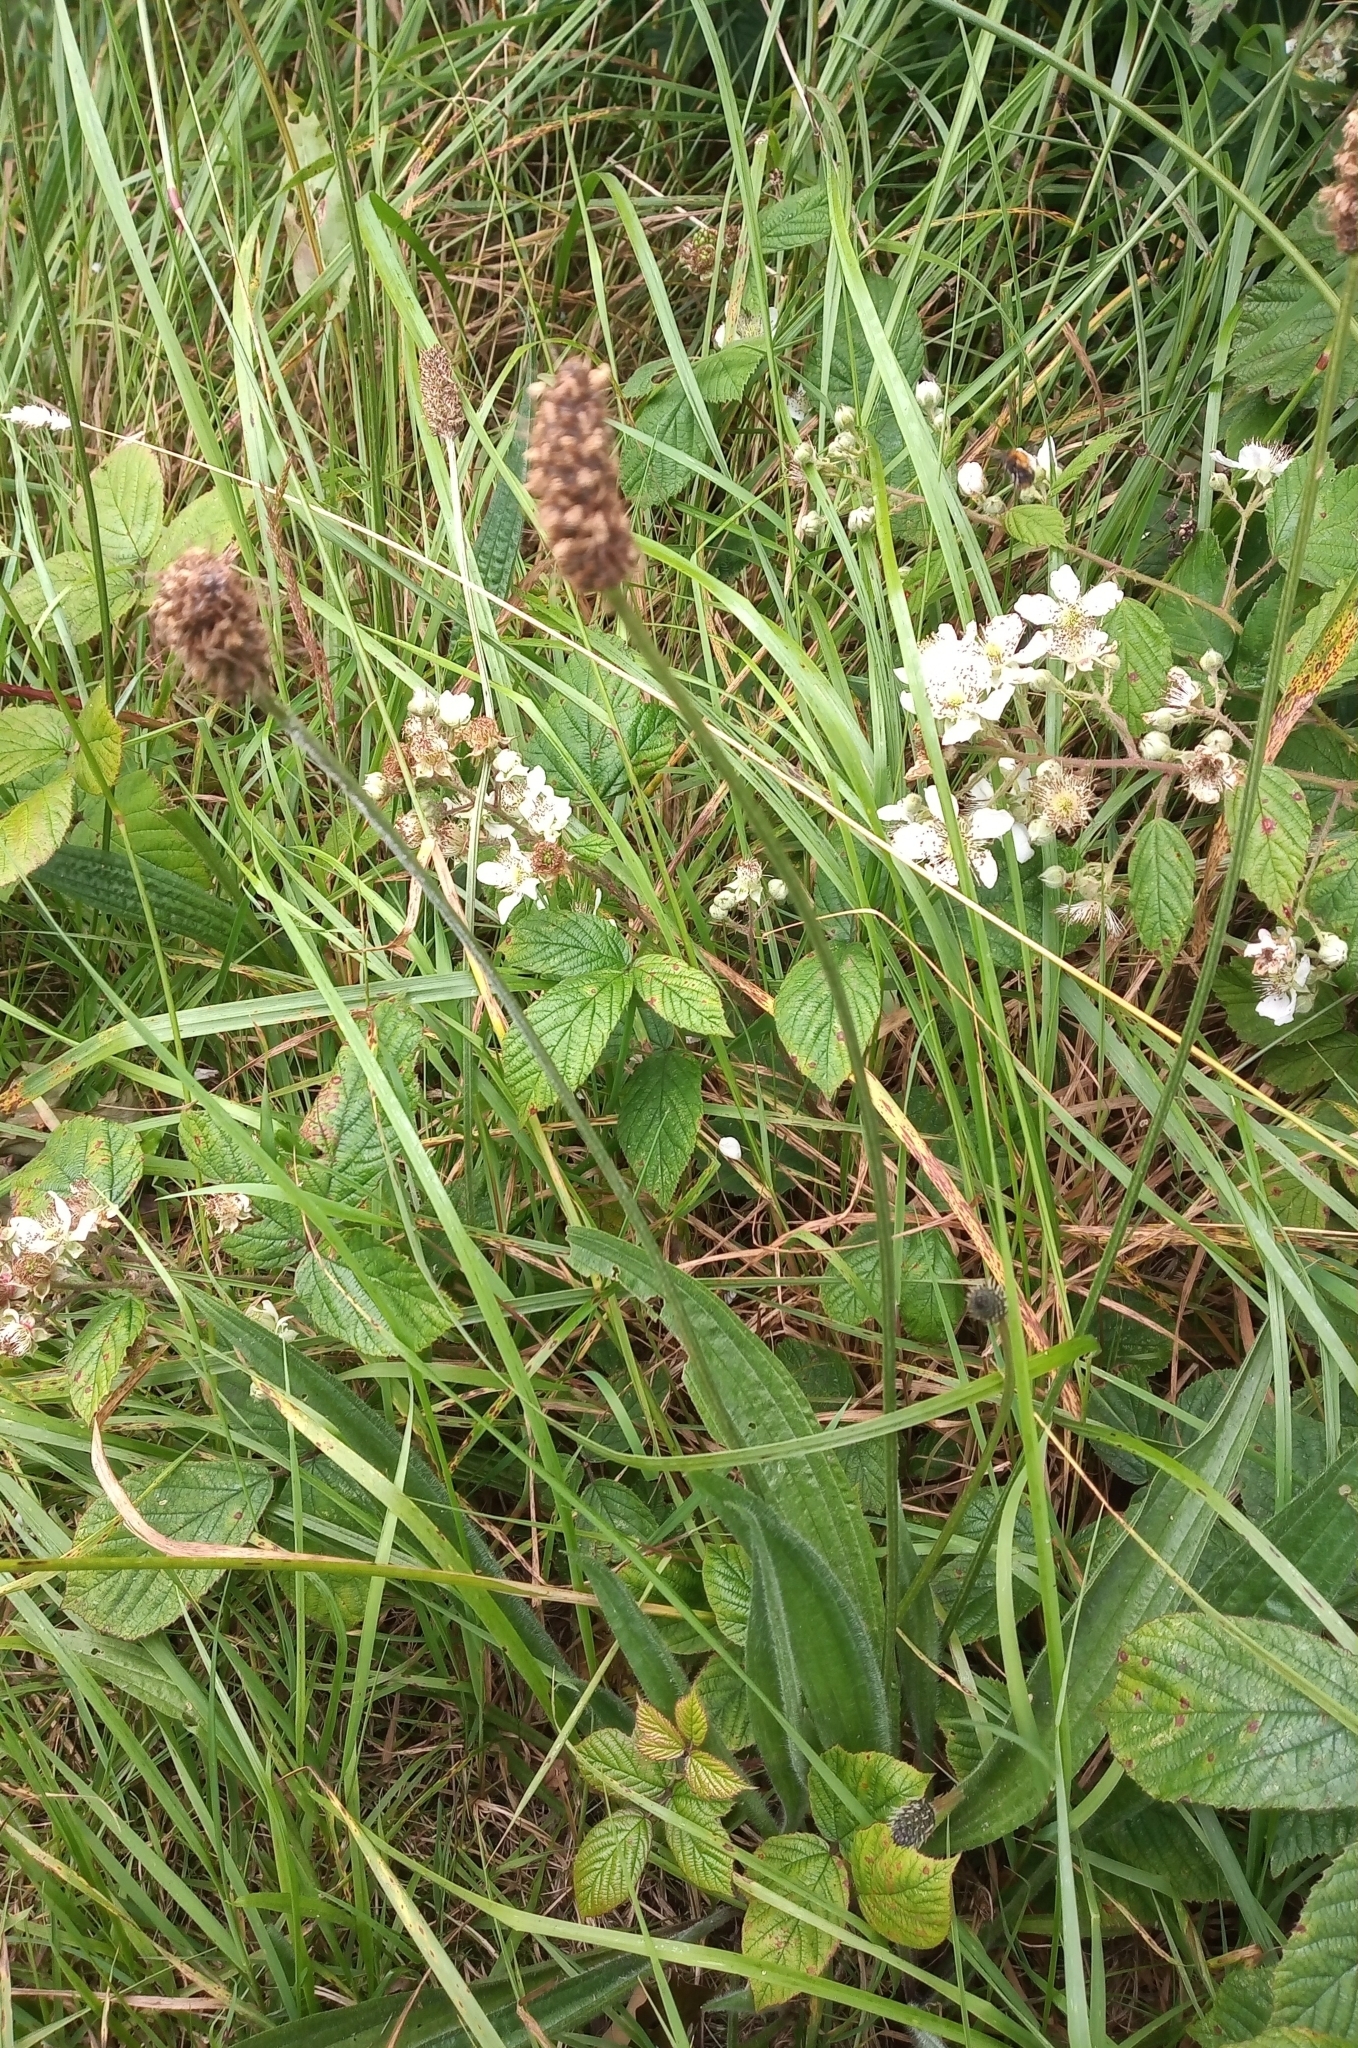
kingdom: Plantae
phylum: Tracheophyta
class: Magnoliopsida
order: Lamiales
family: Plantaginaceae
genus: Plantago
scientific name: Plantago lanceolata
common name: Ribwort plantain
